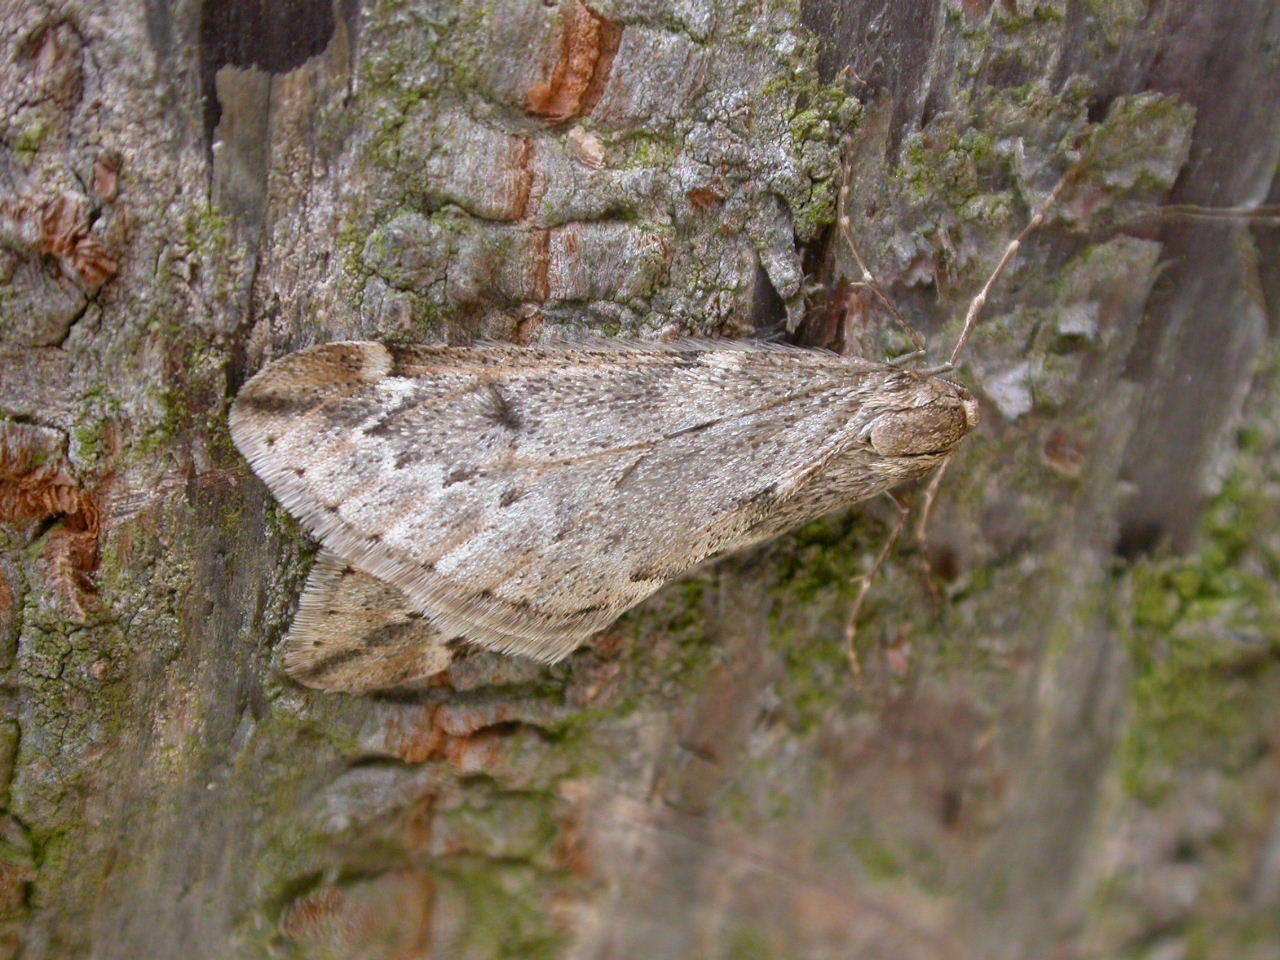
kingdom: Animalia
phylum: Arthropoda
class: Insecta
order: Lepidoptera
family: Geometridae
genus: Alsophila
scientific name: Alsophila aescularia
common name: March moth
